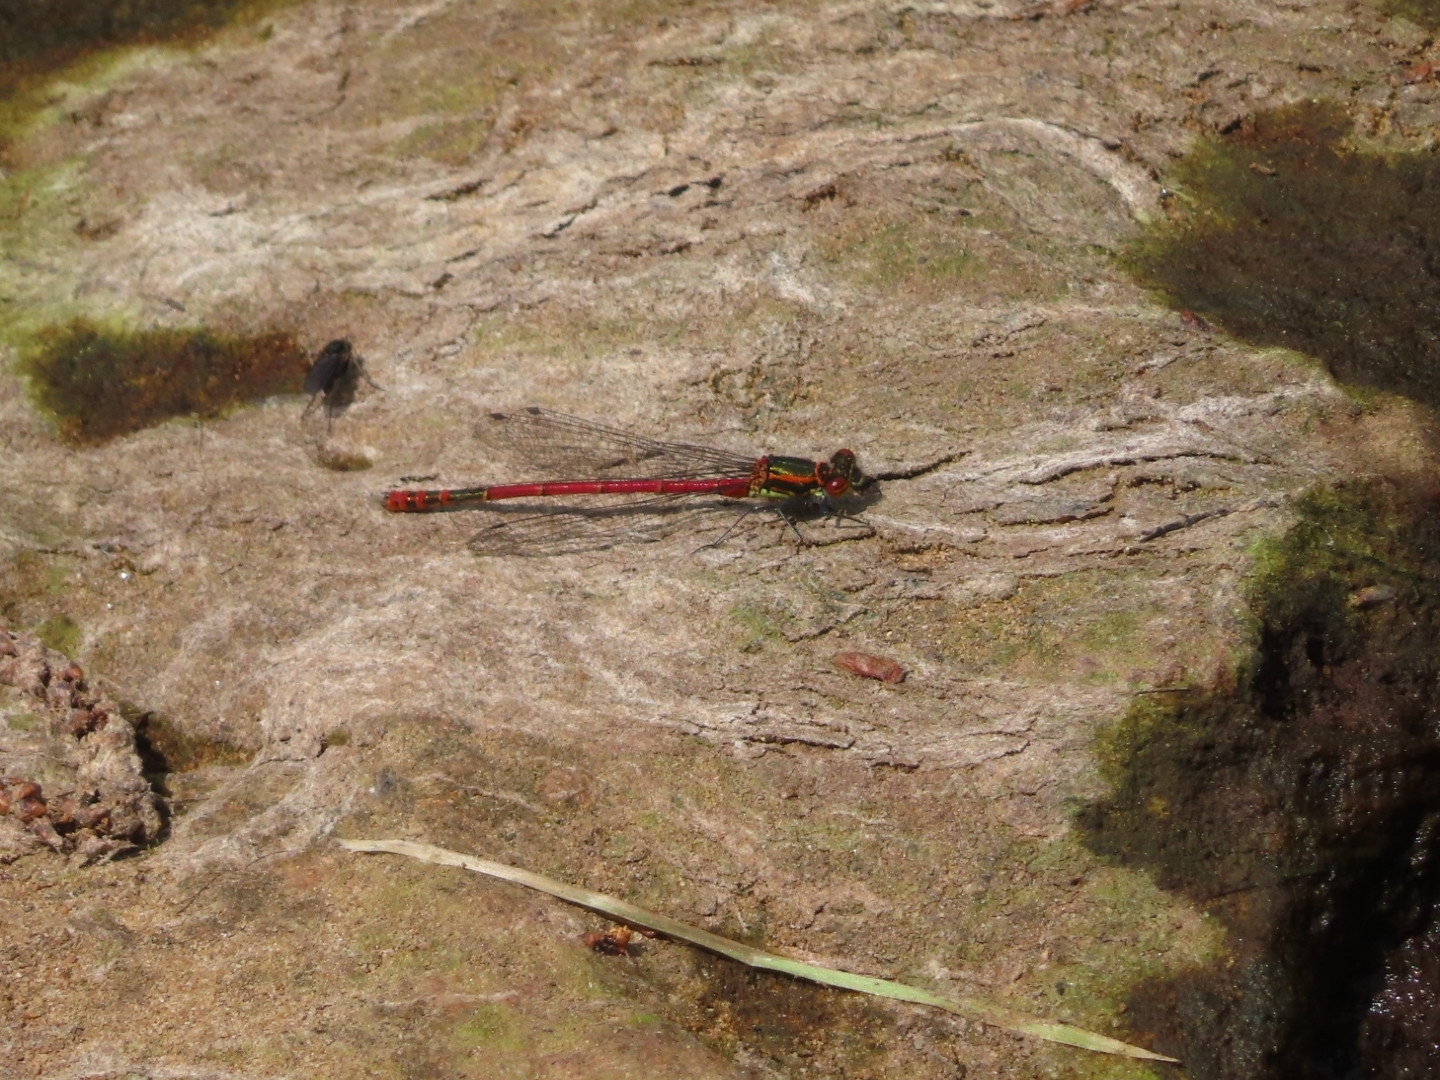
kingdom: Animalia
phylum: Arthropoda
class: Insecta
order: Odonata
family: Coenagrionidae
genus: Pyrrhosoma
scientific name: Pyrrhosoma nymphula
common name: Large red damsel
